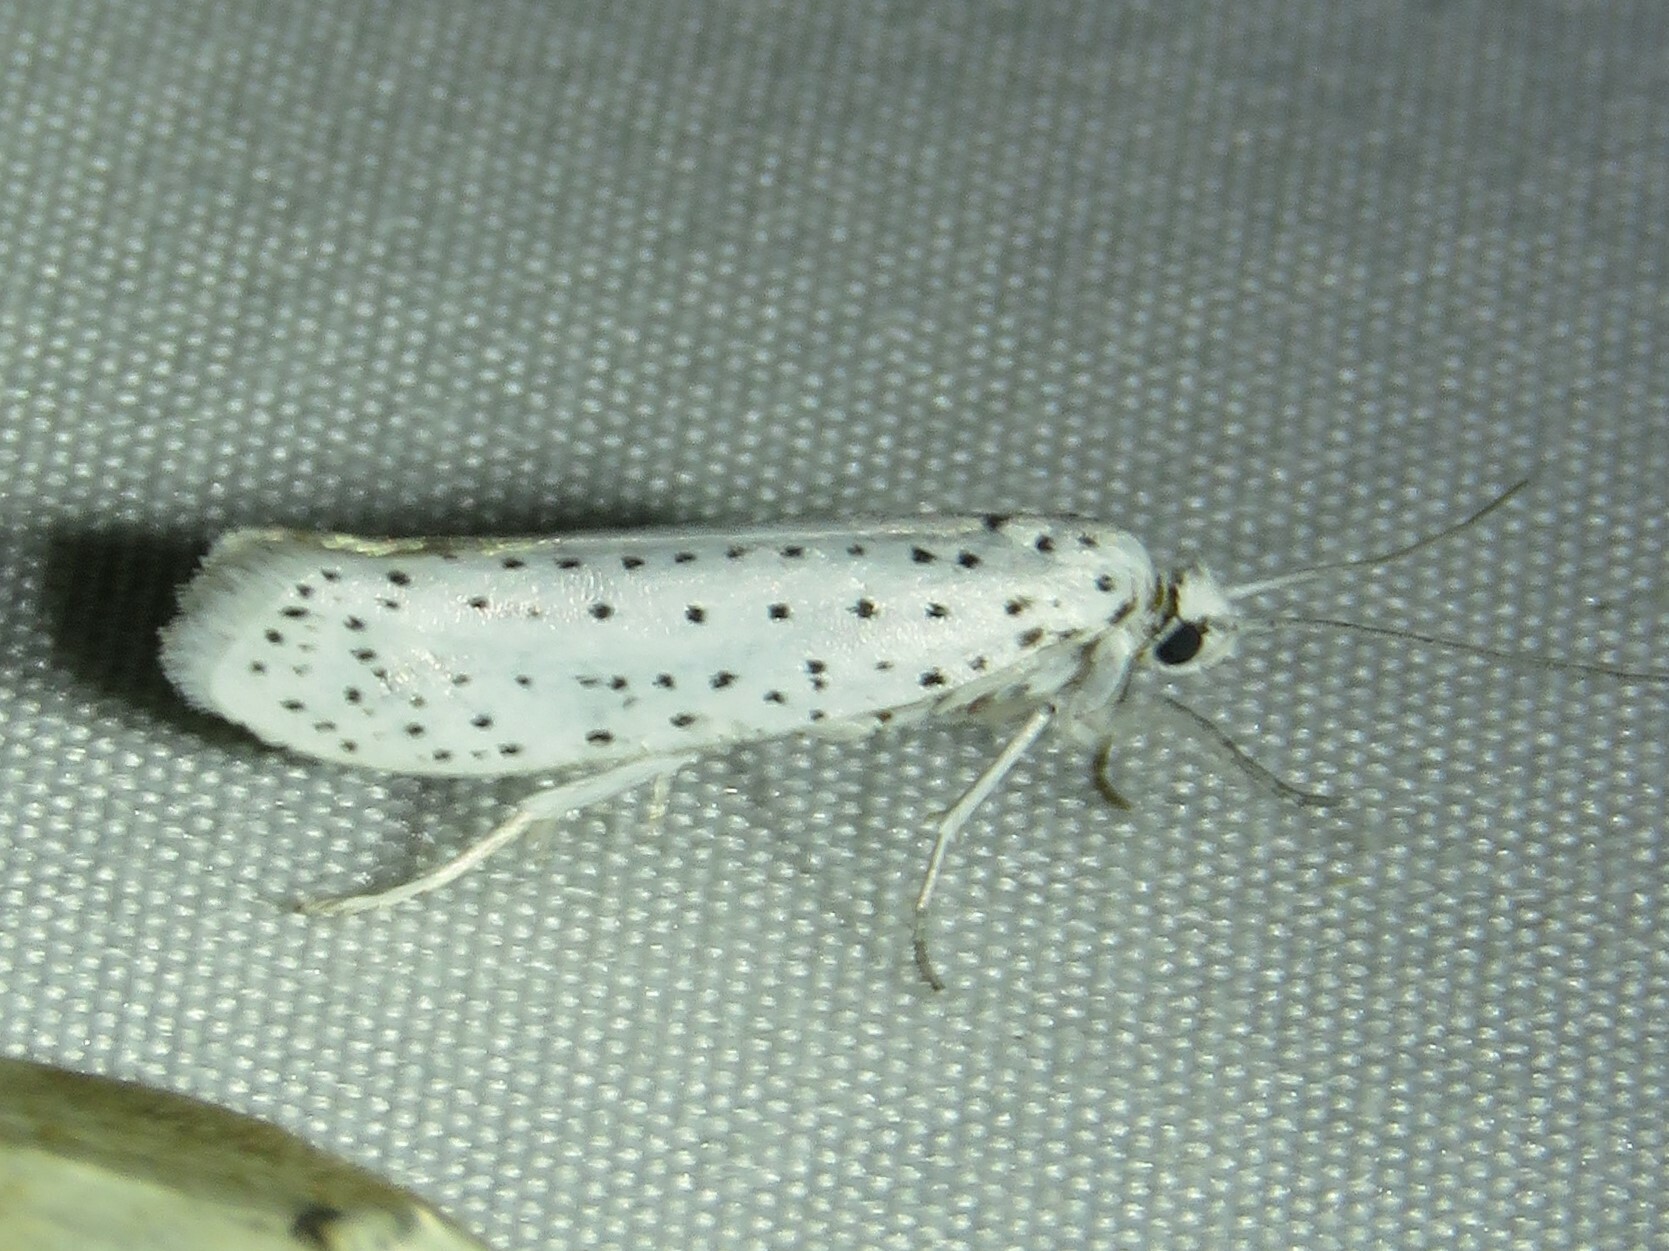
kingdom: Animalia
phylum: Arthropoda
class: Insecta
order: Lepidoptera
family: Yponomeutidae
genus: Yponomeuta
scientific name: Yponomeuta multipunctella
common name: American ermine moth
